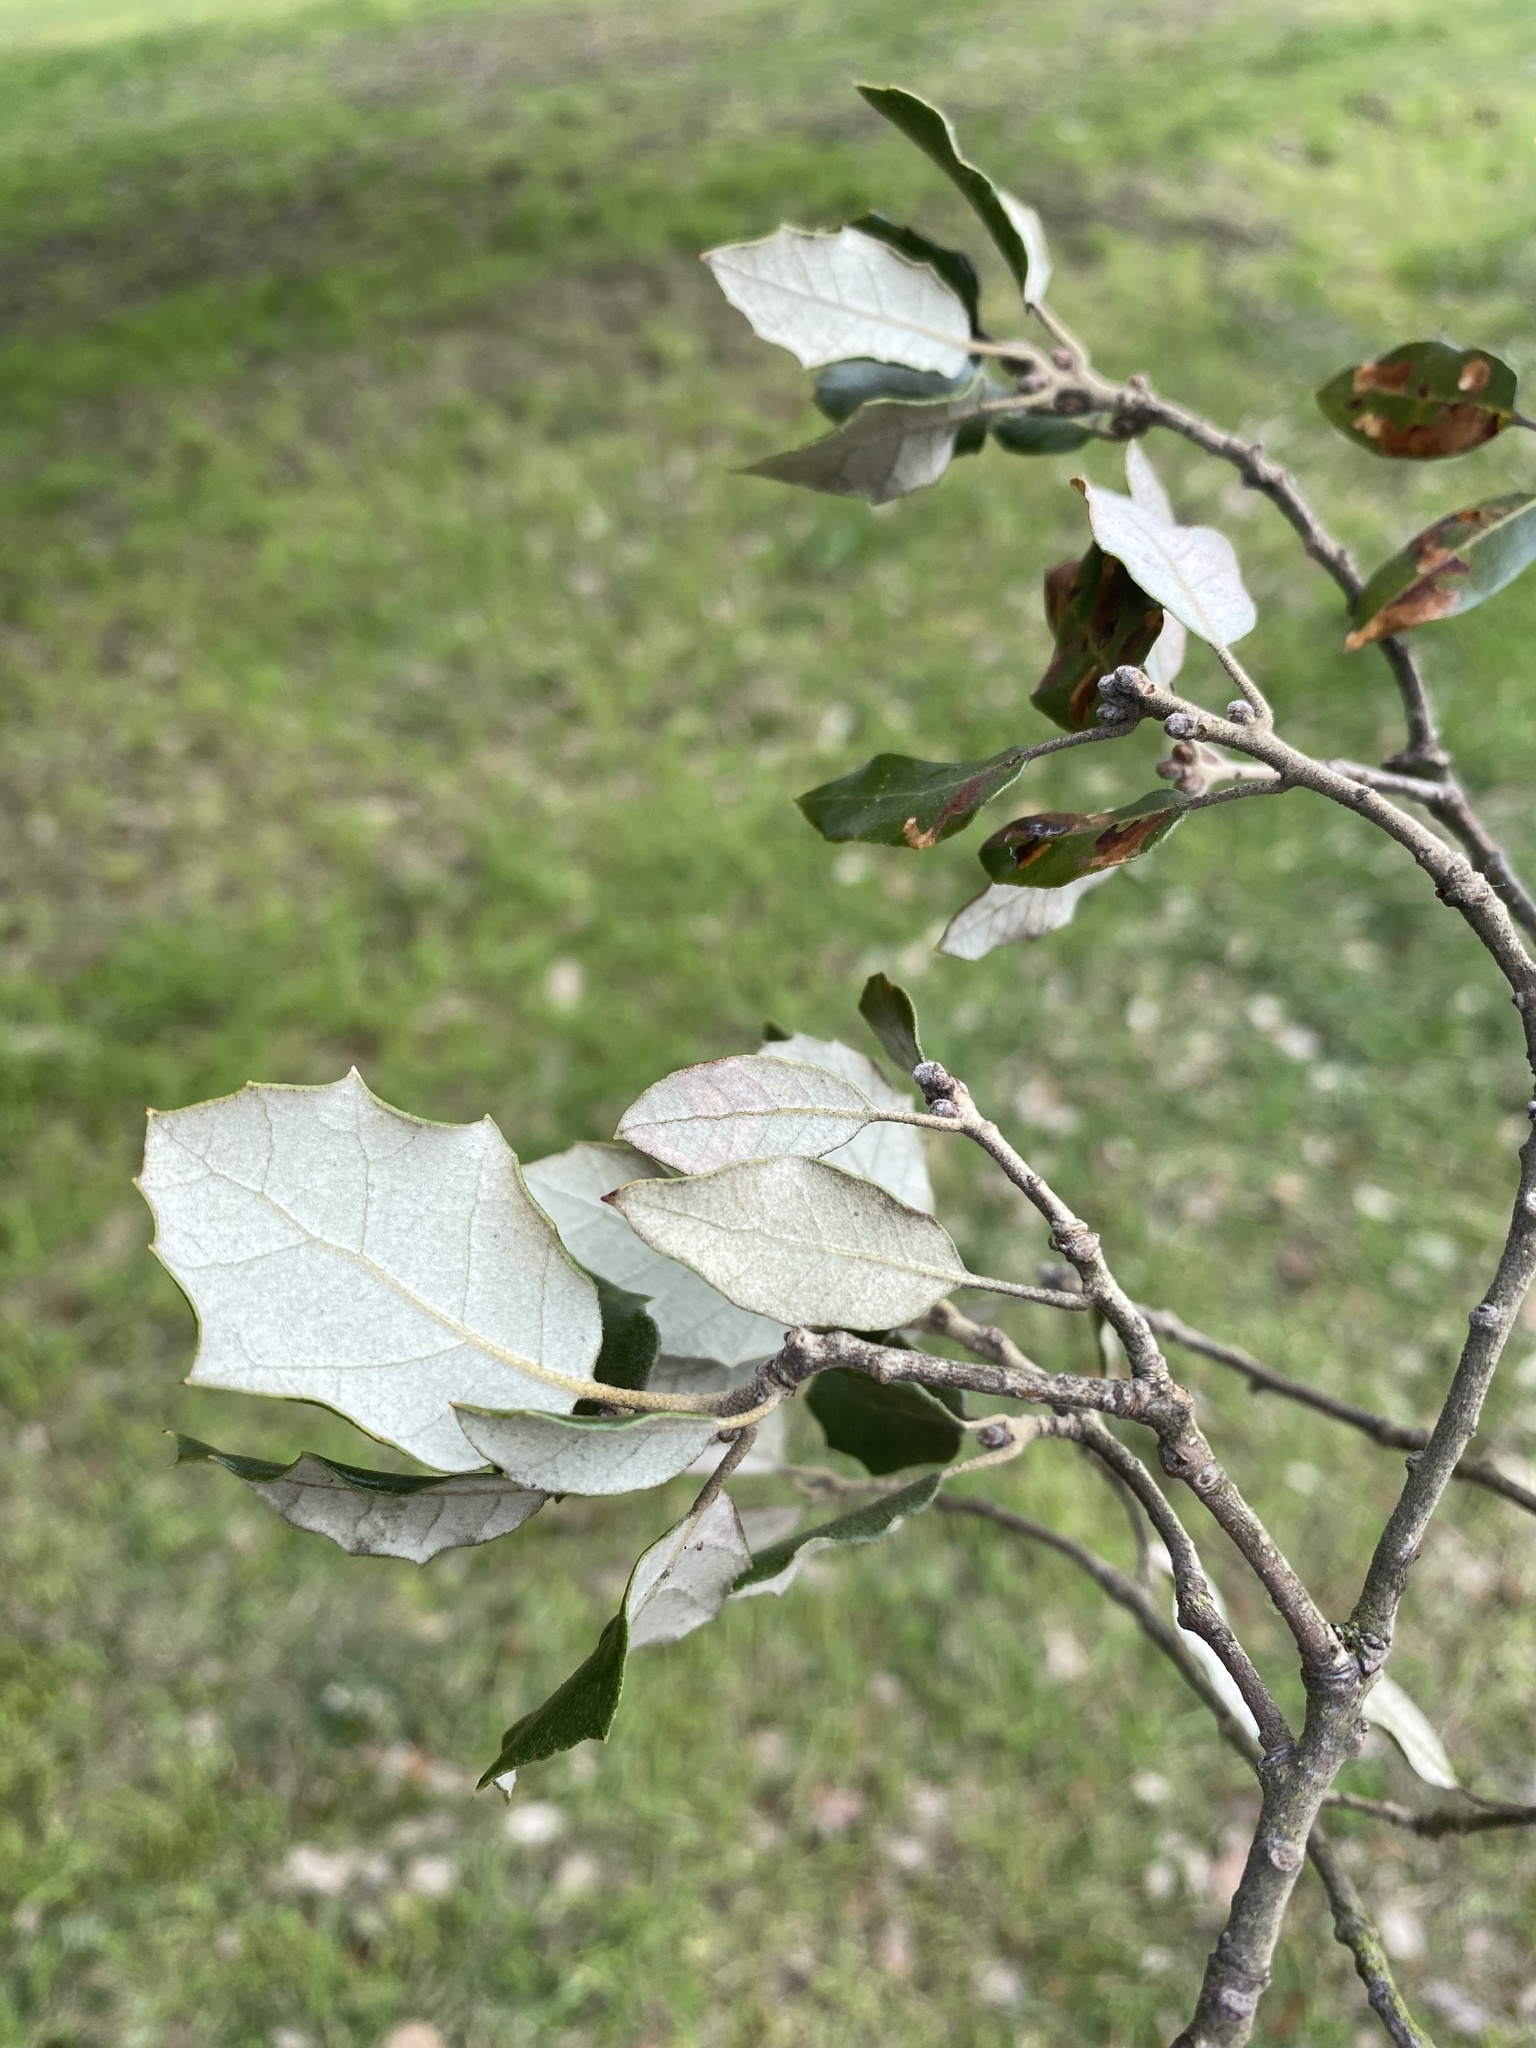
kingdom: Plantae
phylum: Tracheophyta
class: Magnoliopsida
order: Fagales
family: Fagaceae
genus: Quercus
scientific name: Quercus ilex
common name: Evergreen oak
